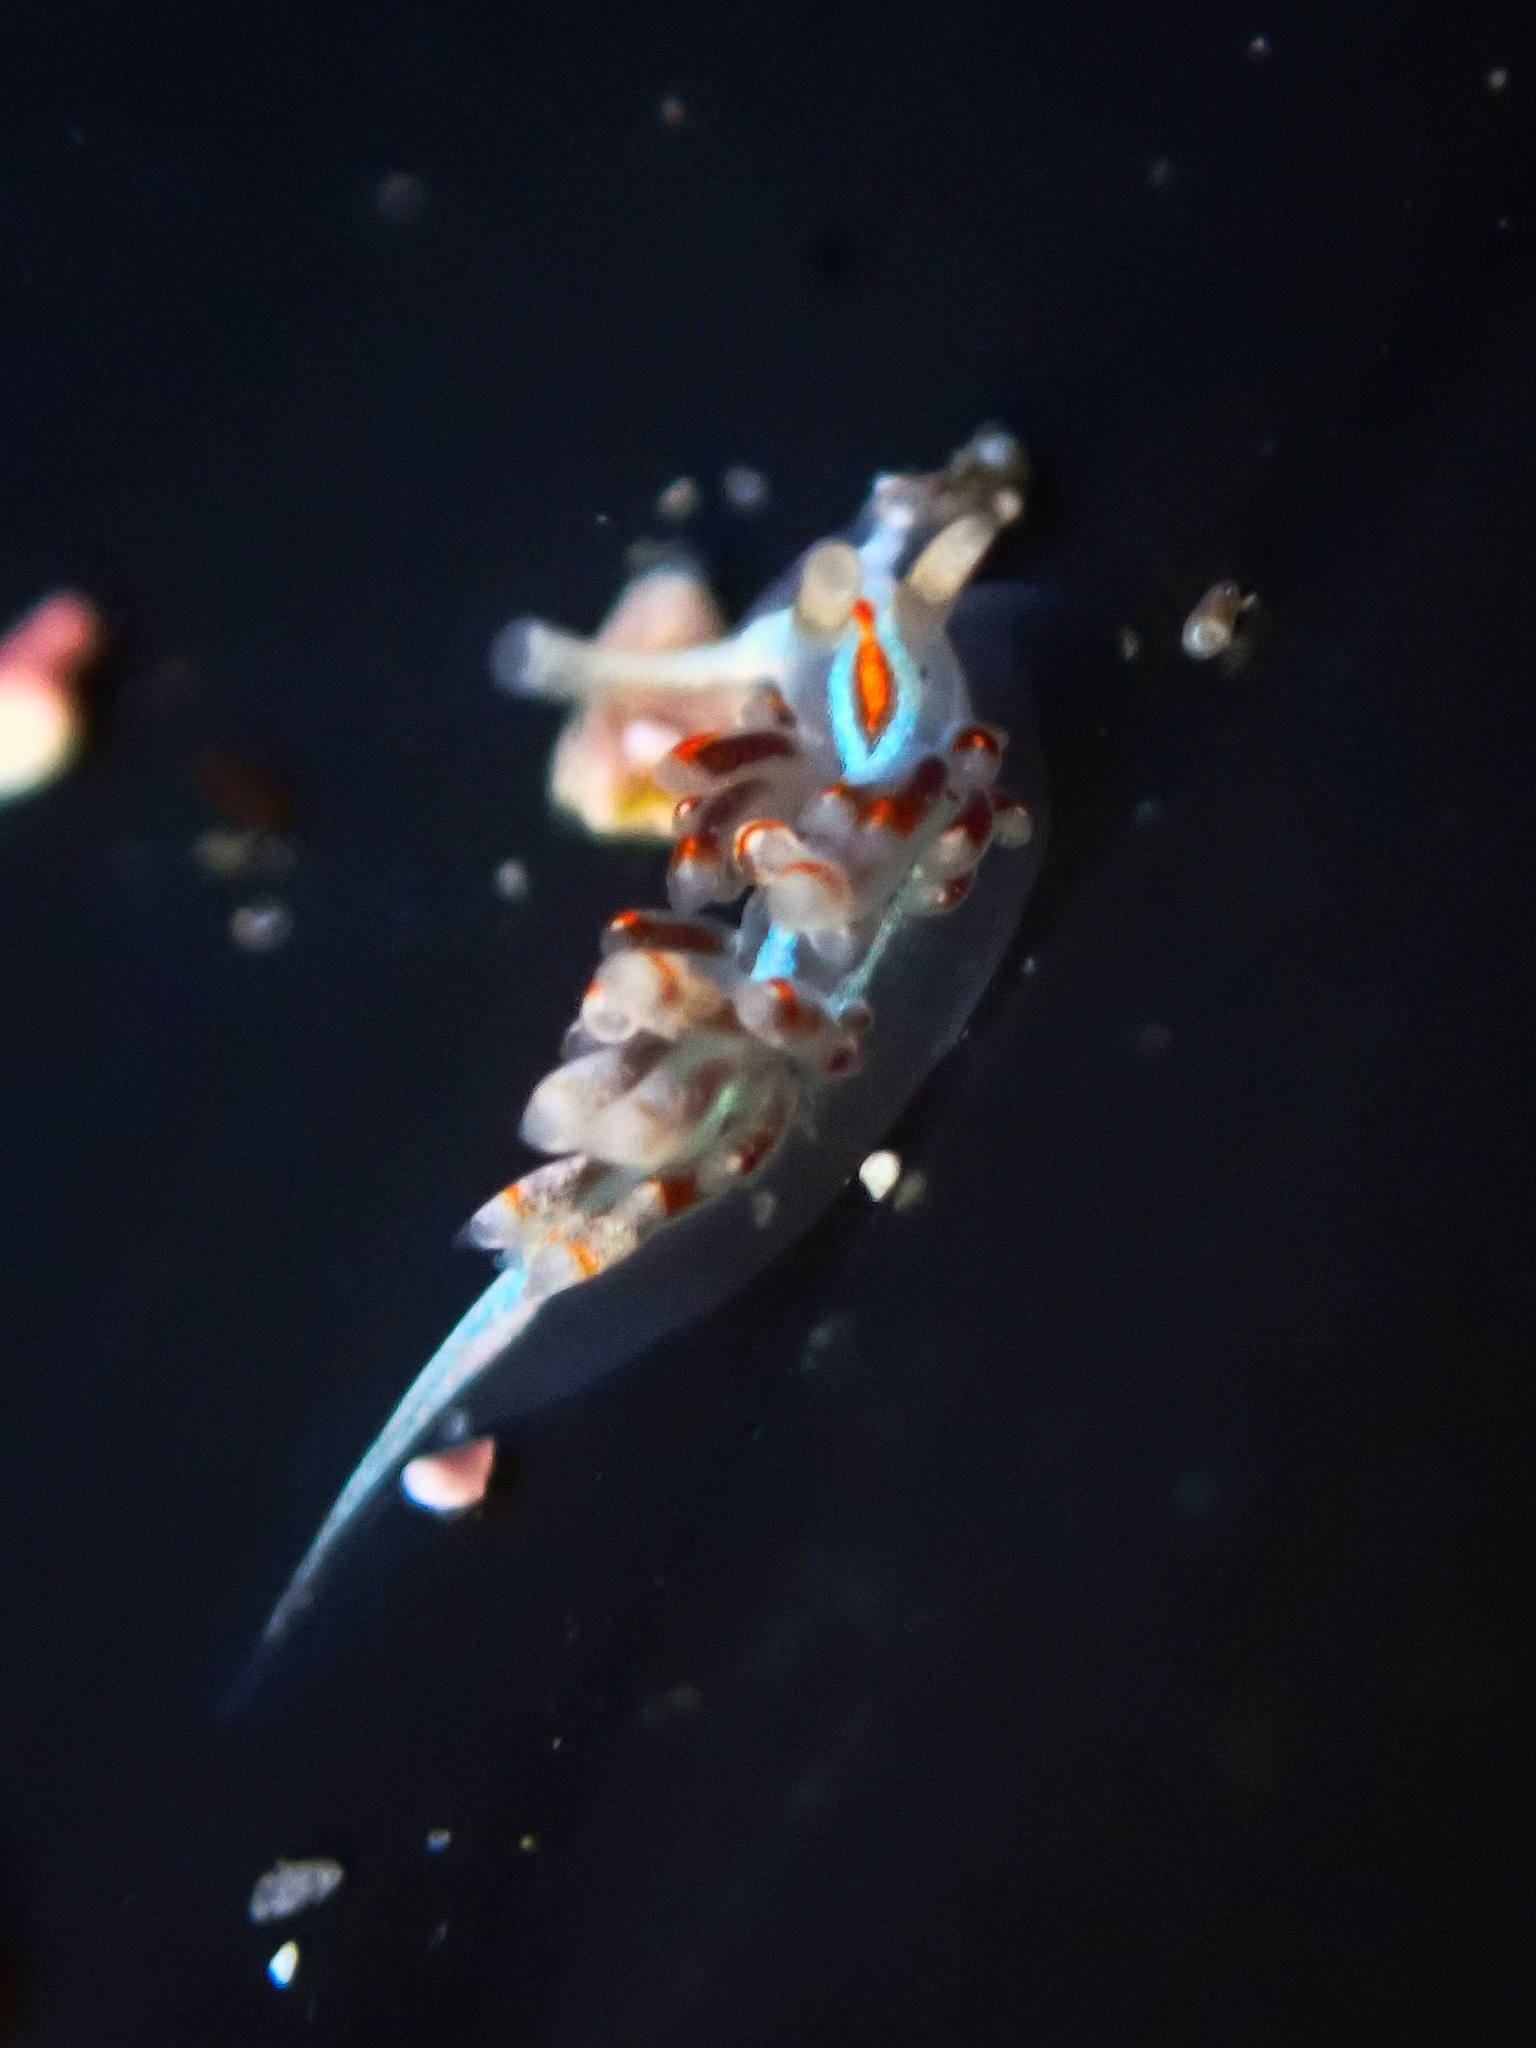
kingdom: Animalia
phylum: Mollusca
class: Gastropoda
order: Nudibranchia
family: Myrrhinidae
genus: Hermissenda
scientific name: Hermissenda opalescens
